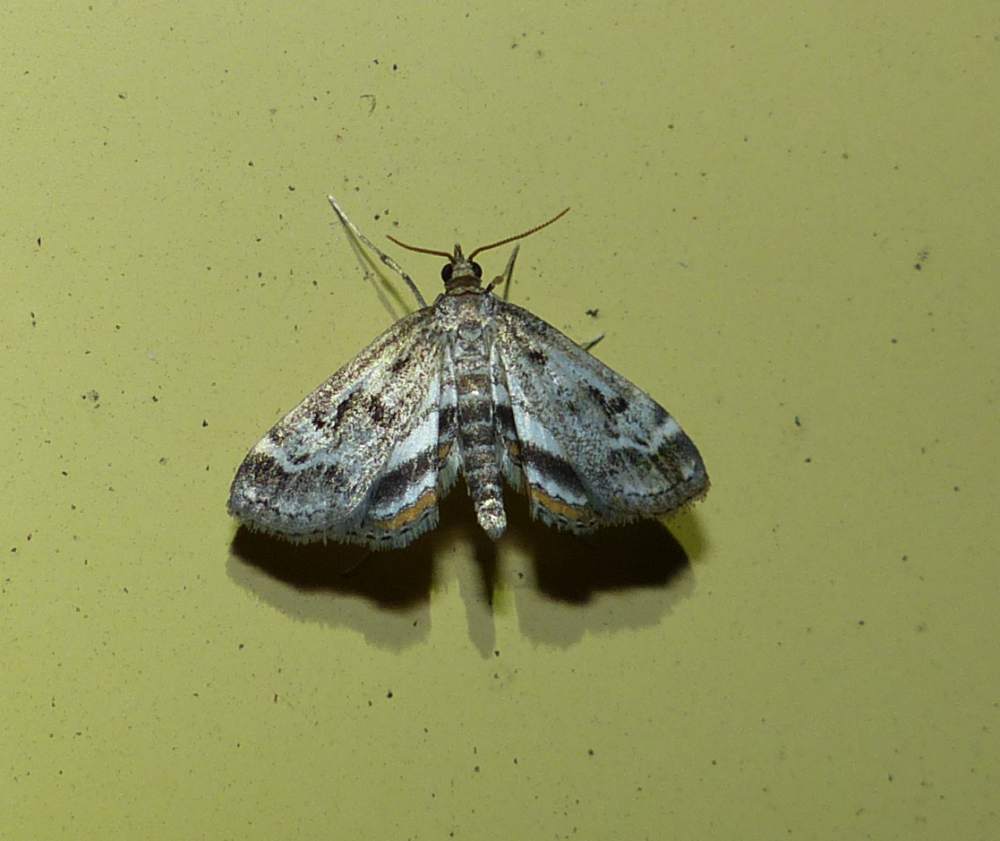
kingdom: Animalia
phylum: Arthropoda
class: Insecta
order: Lepidoptera
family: Crambidae
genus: Parapoynx
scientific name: Parapoynx obscuralis
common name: American china-mark
